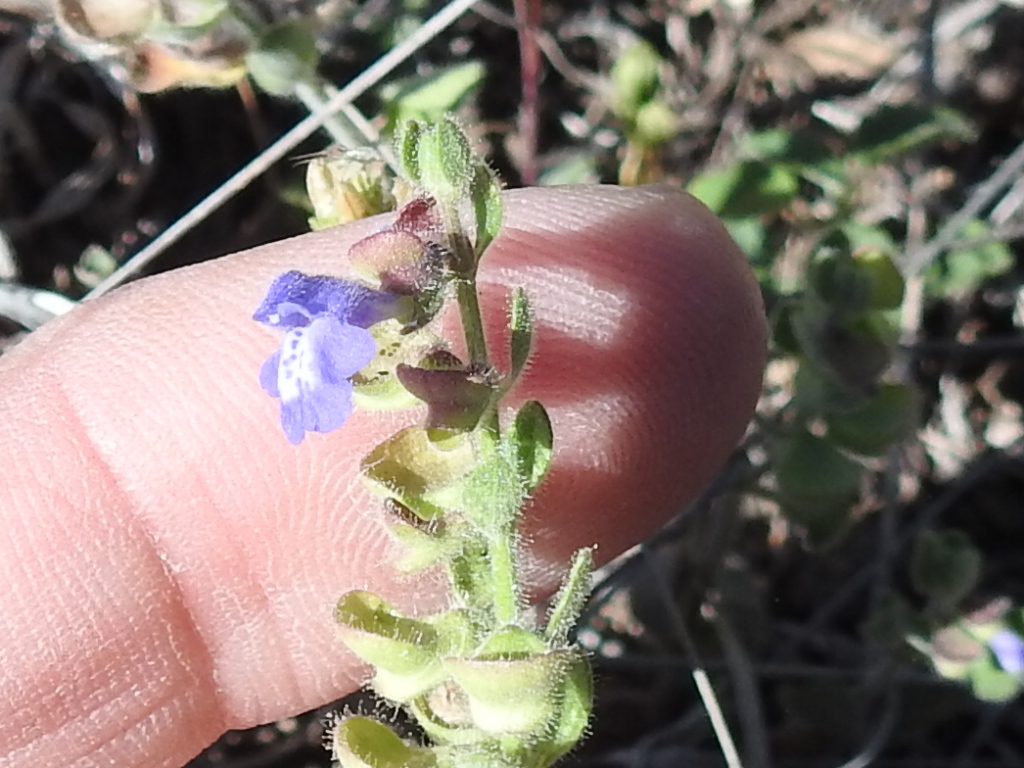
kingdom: Plantae
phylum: Tracheophyta
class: Magnoliopsida
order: Lamiales
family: Lamiaceae
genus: Scutellaria
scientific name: Scutellaria drummondii
